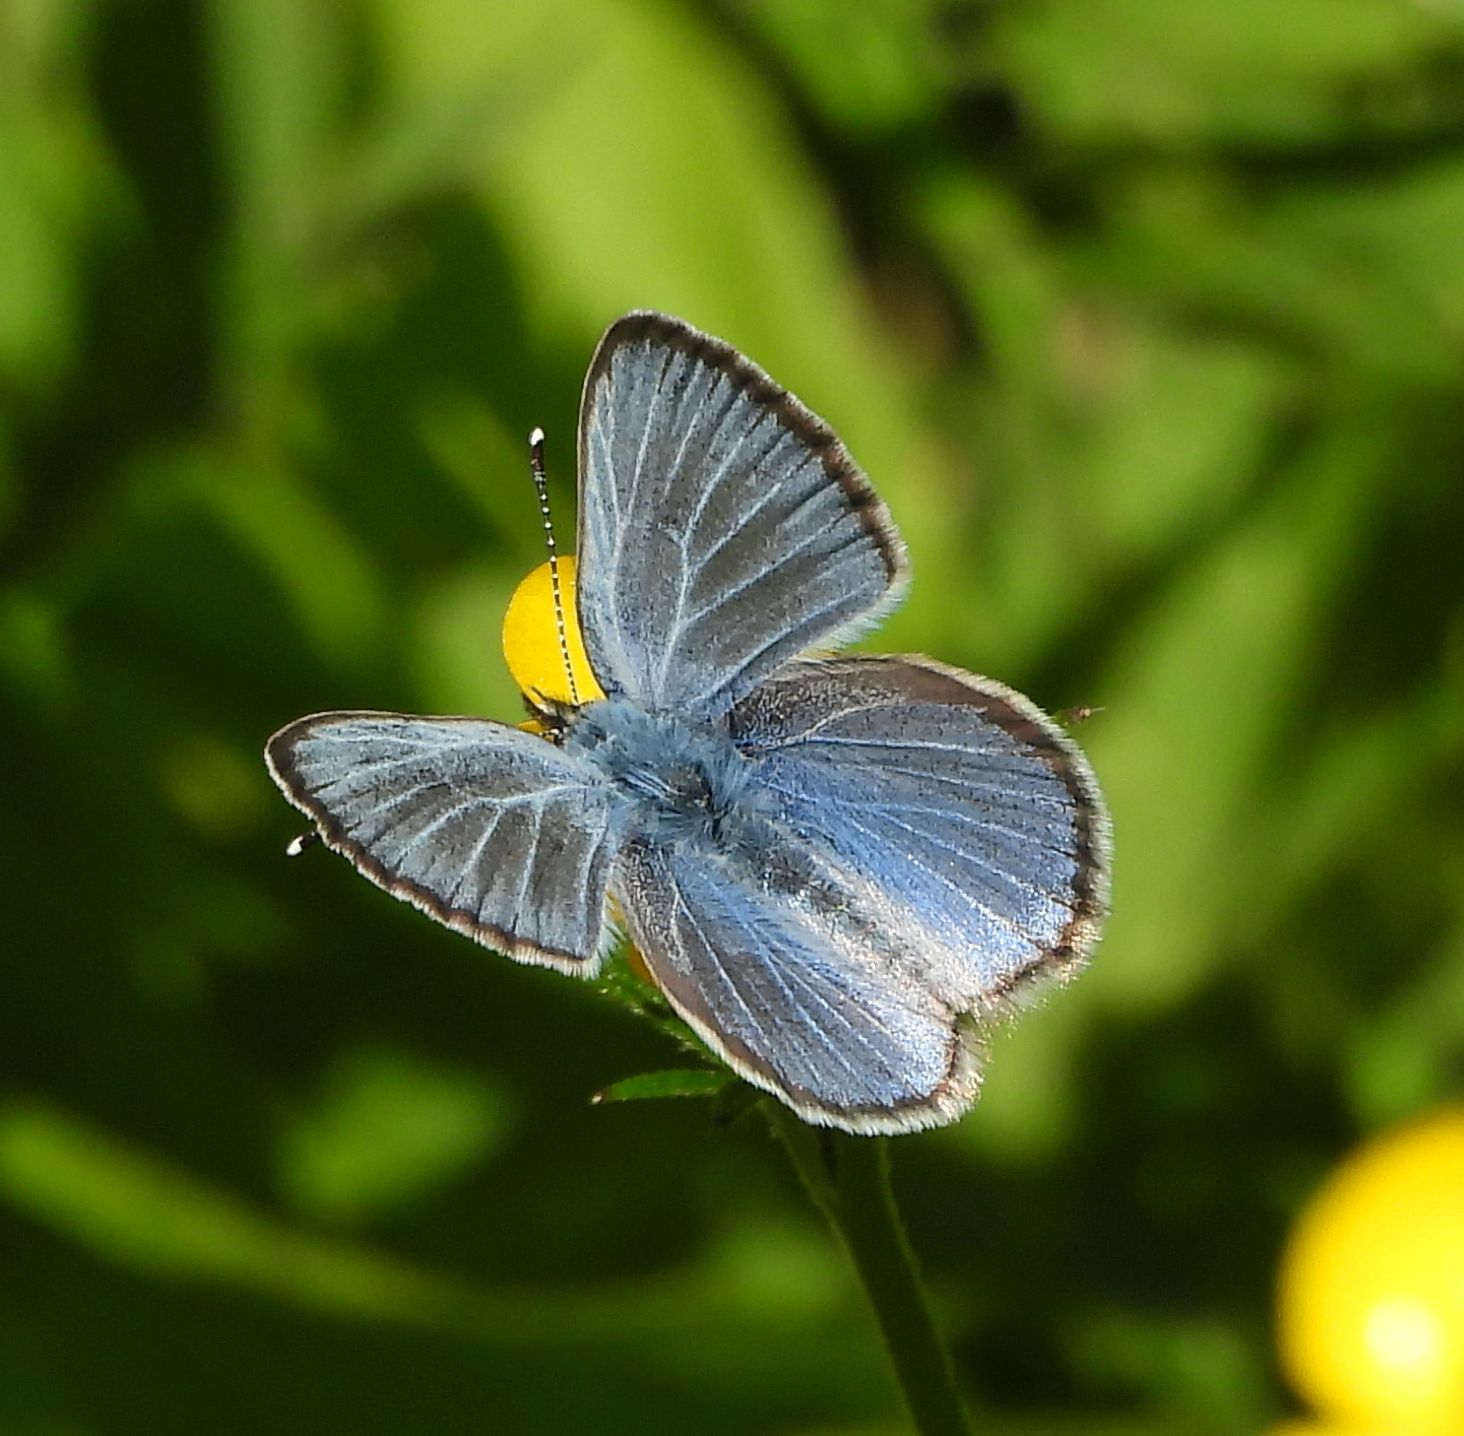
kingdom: Animalia
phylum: Arthropoda
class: Insecta
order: Lepidoptera
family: Lycaenidae
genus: Glaucopsyche
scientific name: Glaucopsyche lygdamus
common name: Silvery blue
